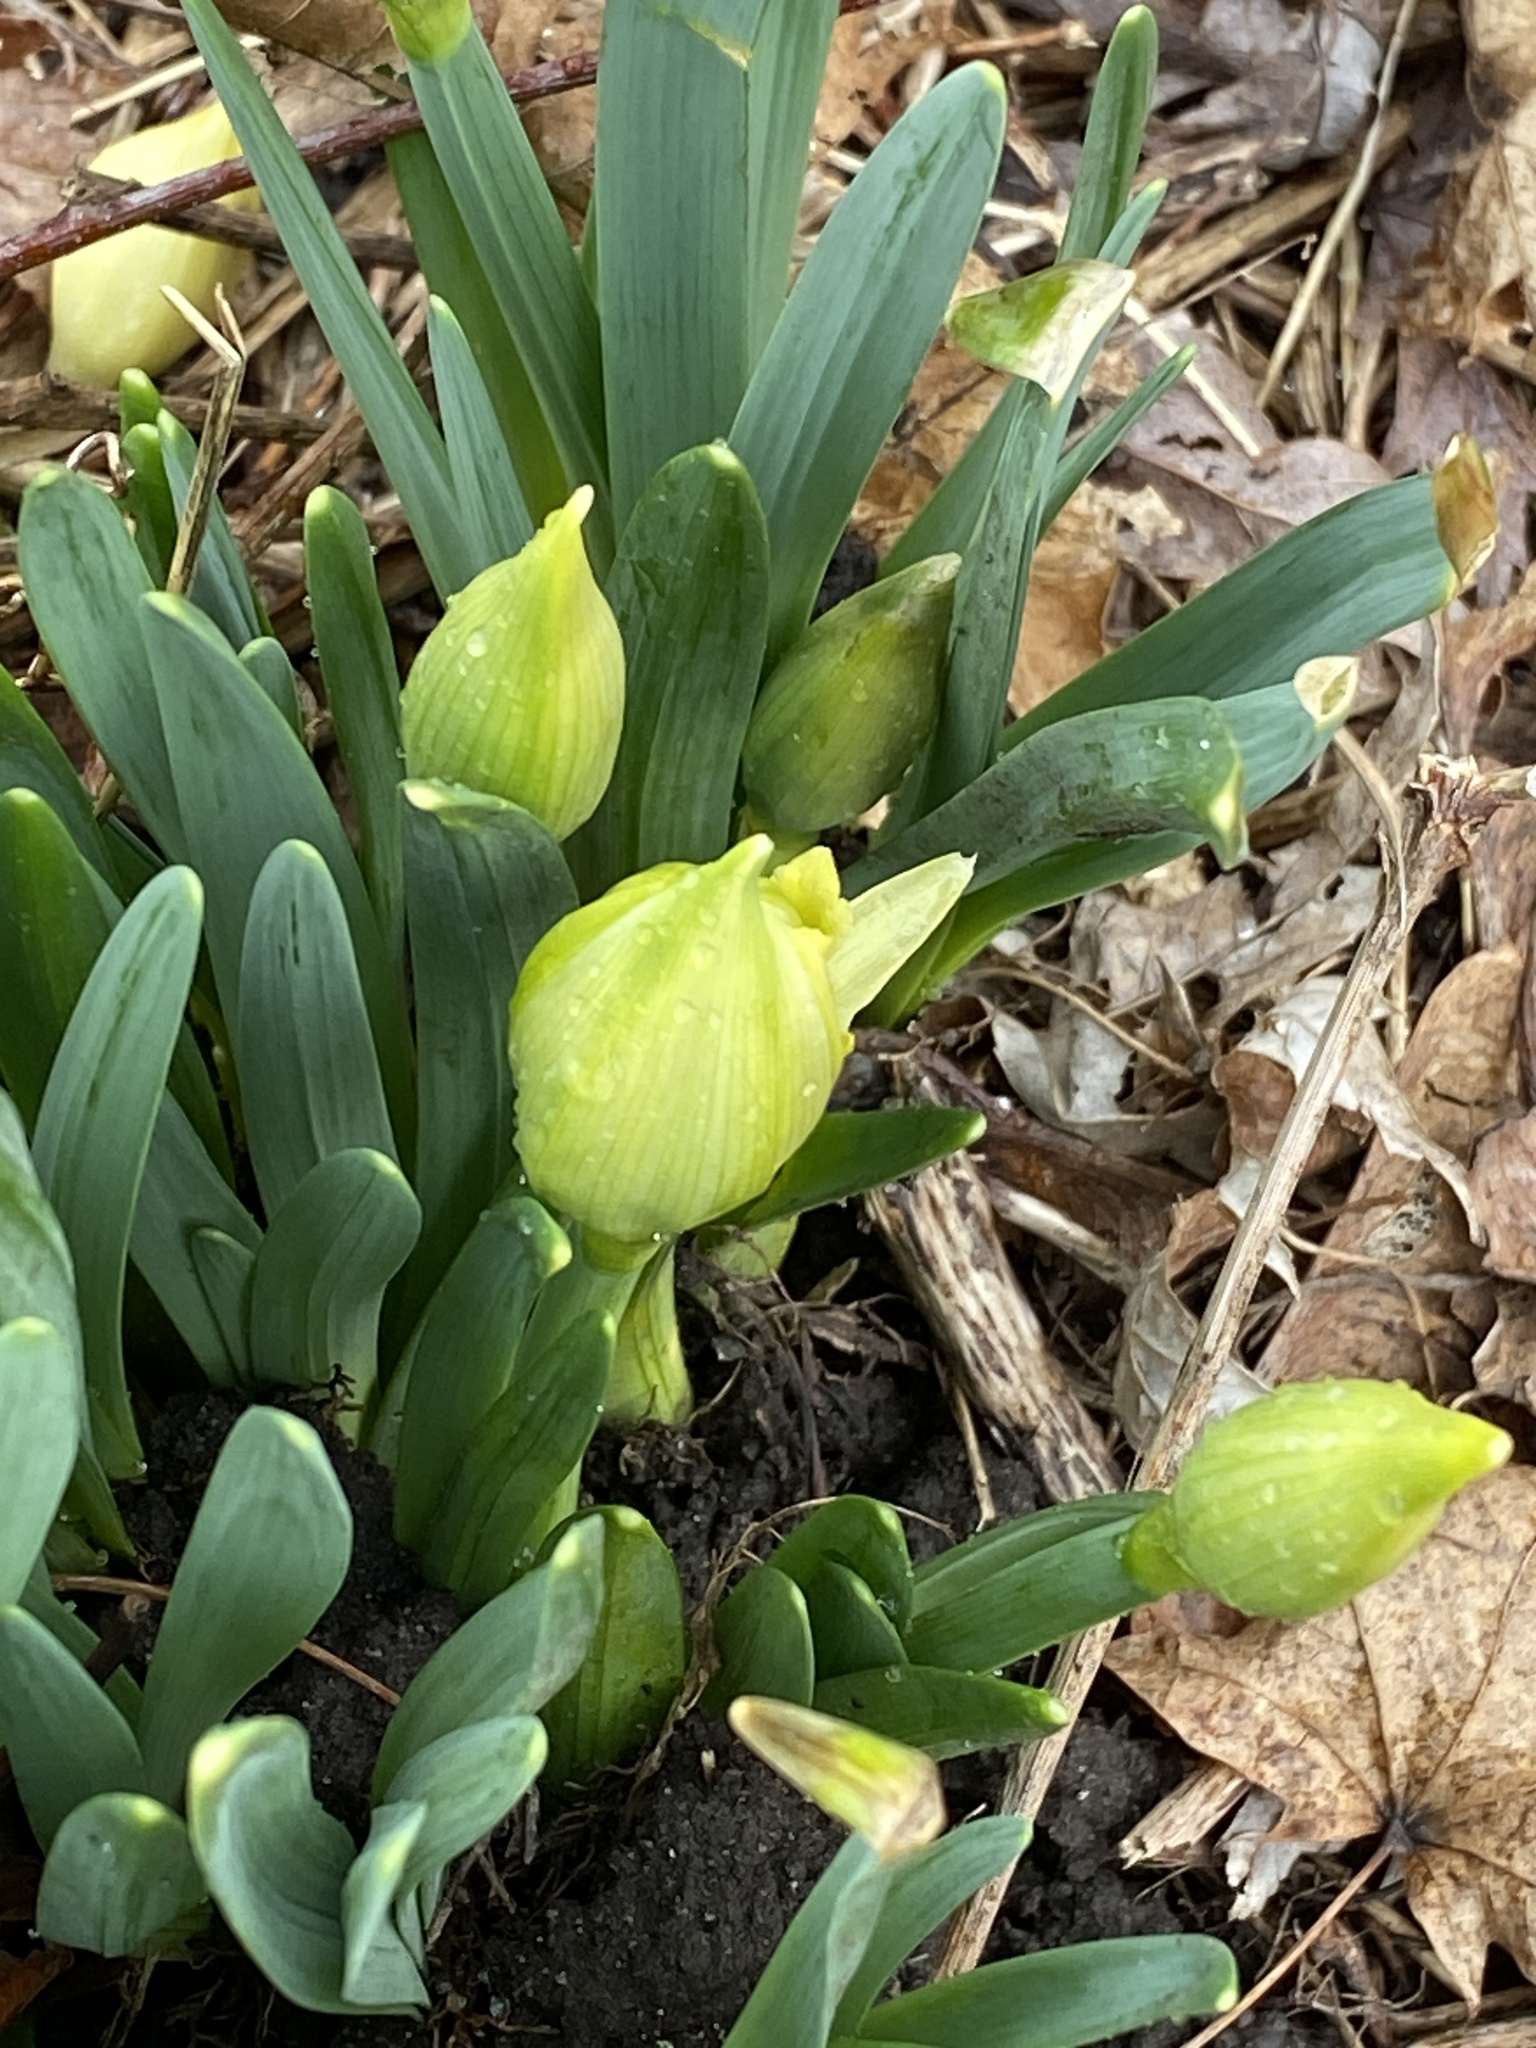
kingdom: Plantae
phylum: Tracheophyta
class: Liliopsida
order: Asparagales
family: Amaryllidaceae
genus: Narcissus
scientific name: Narcissus
